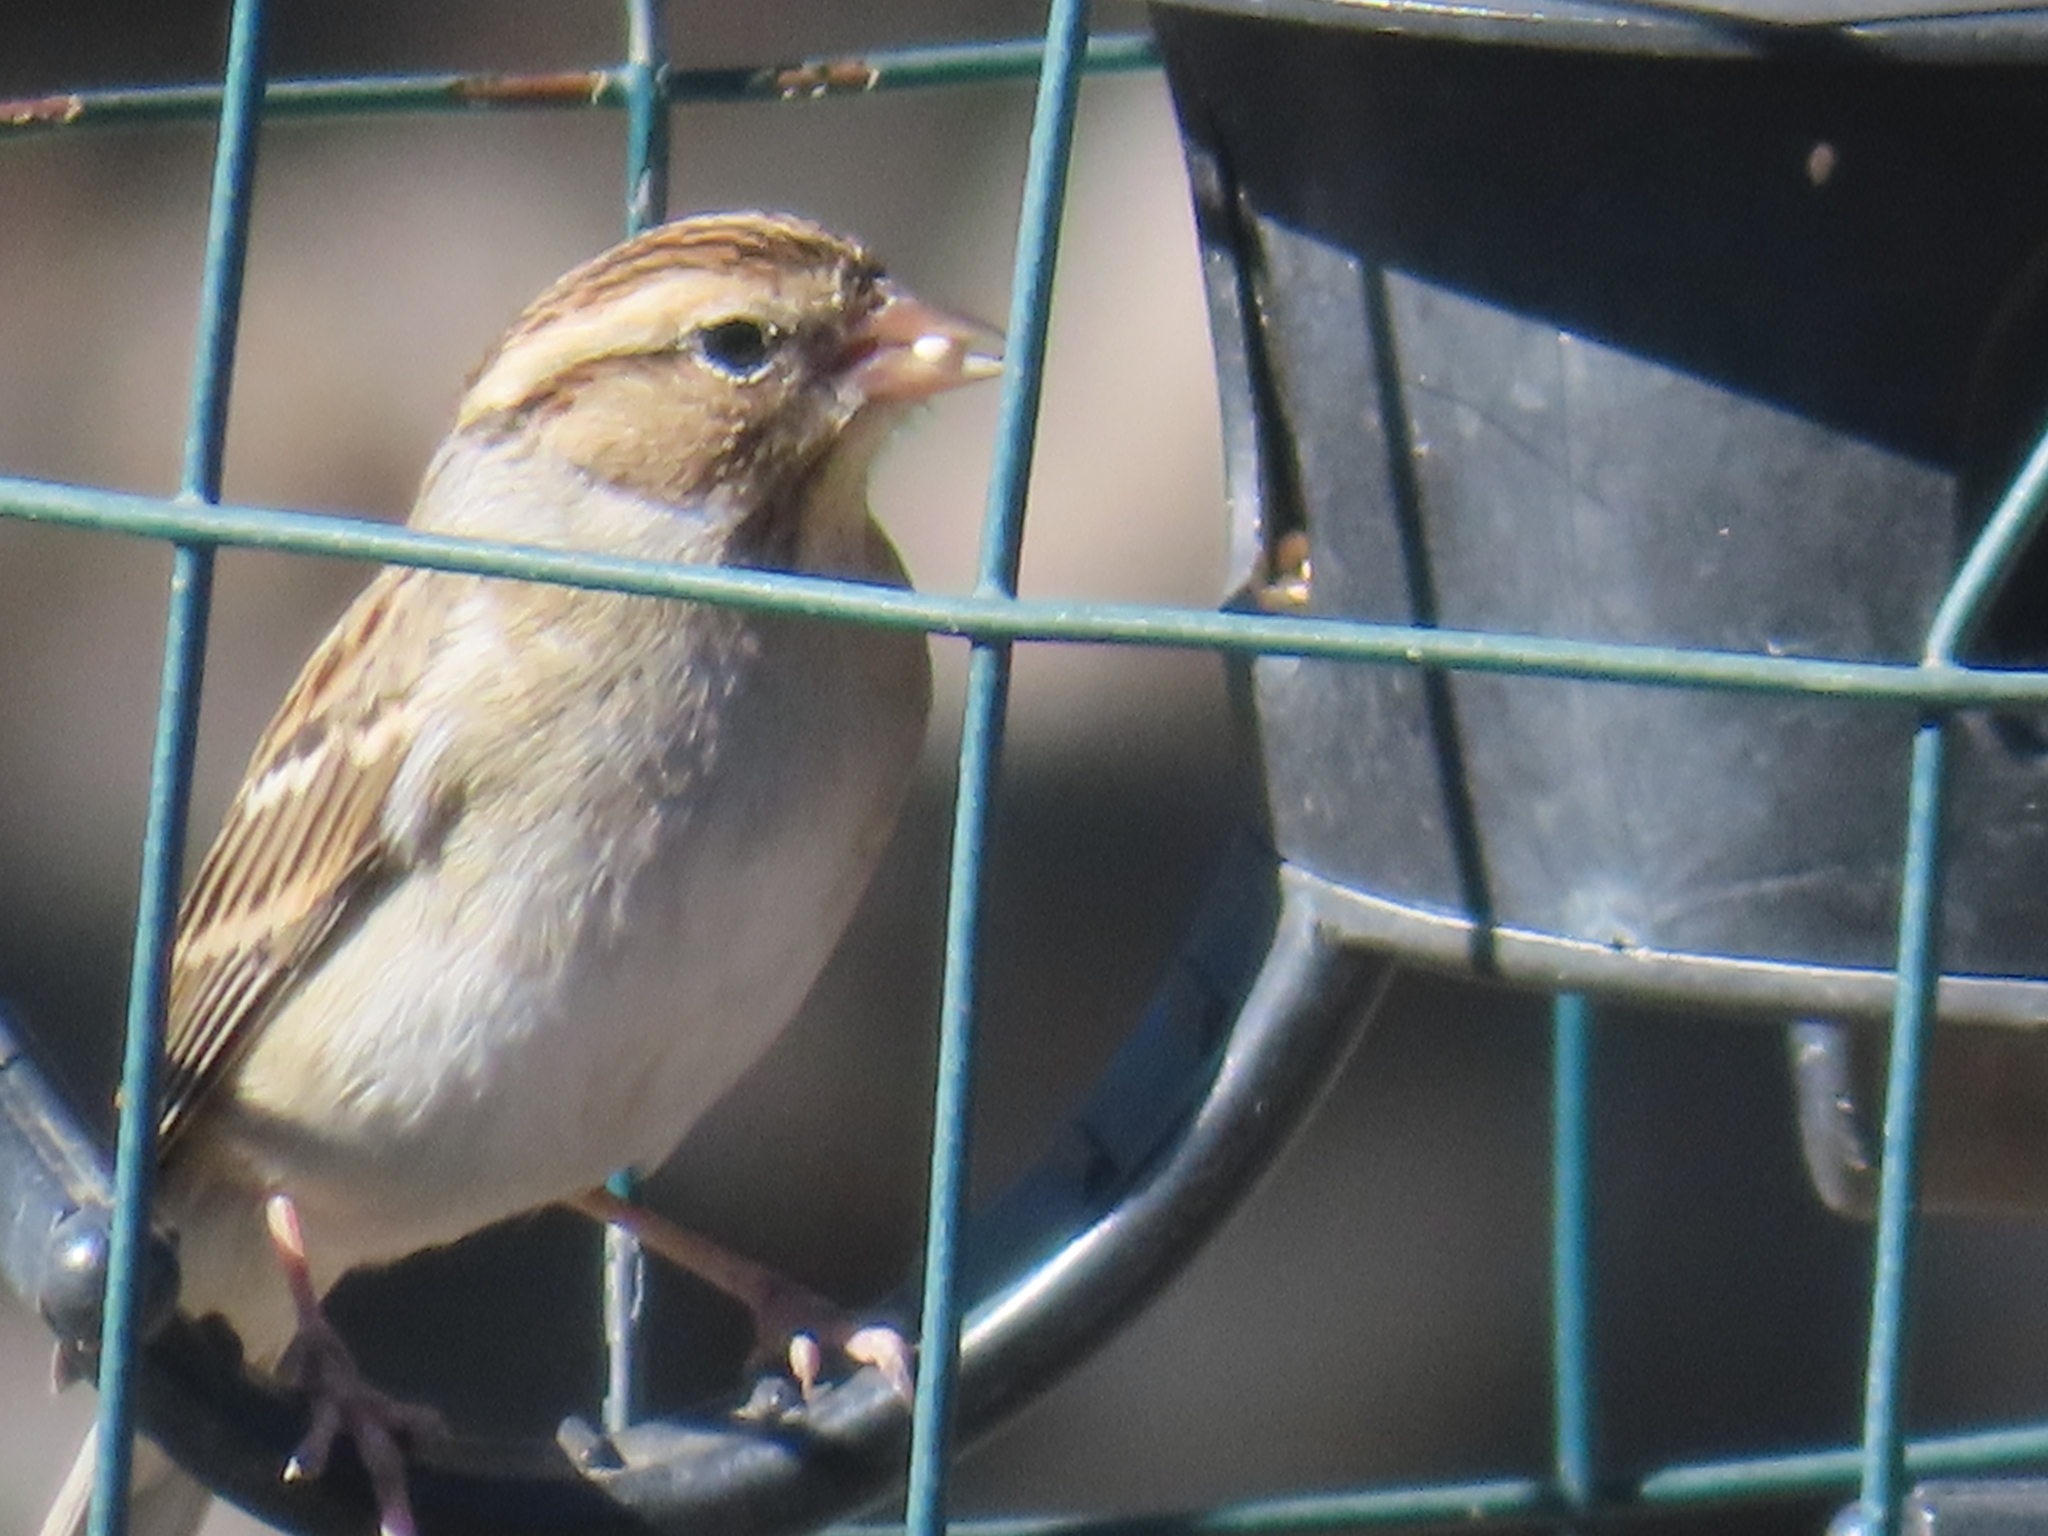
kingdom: Animalia
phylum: Chordata
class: Aves
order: Passeriformes
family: Passerellidae
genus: Spizella
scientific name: Spizella passerina
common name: Chipping sparrow
